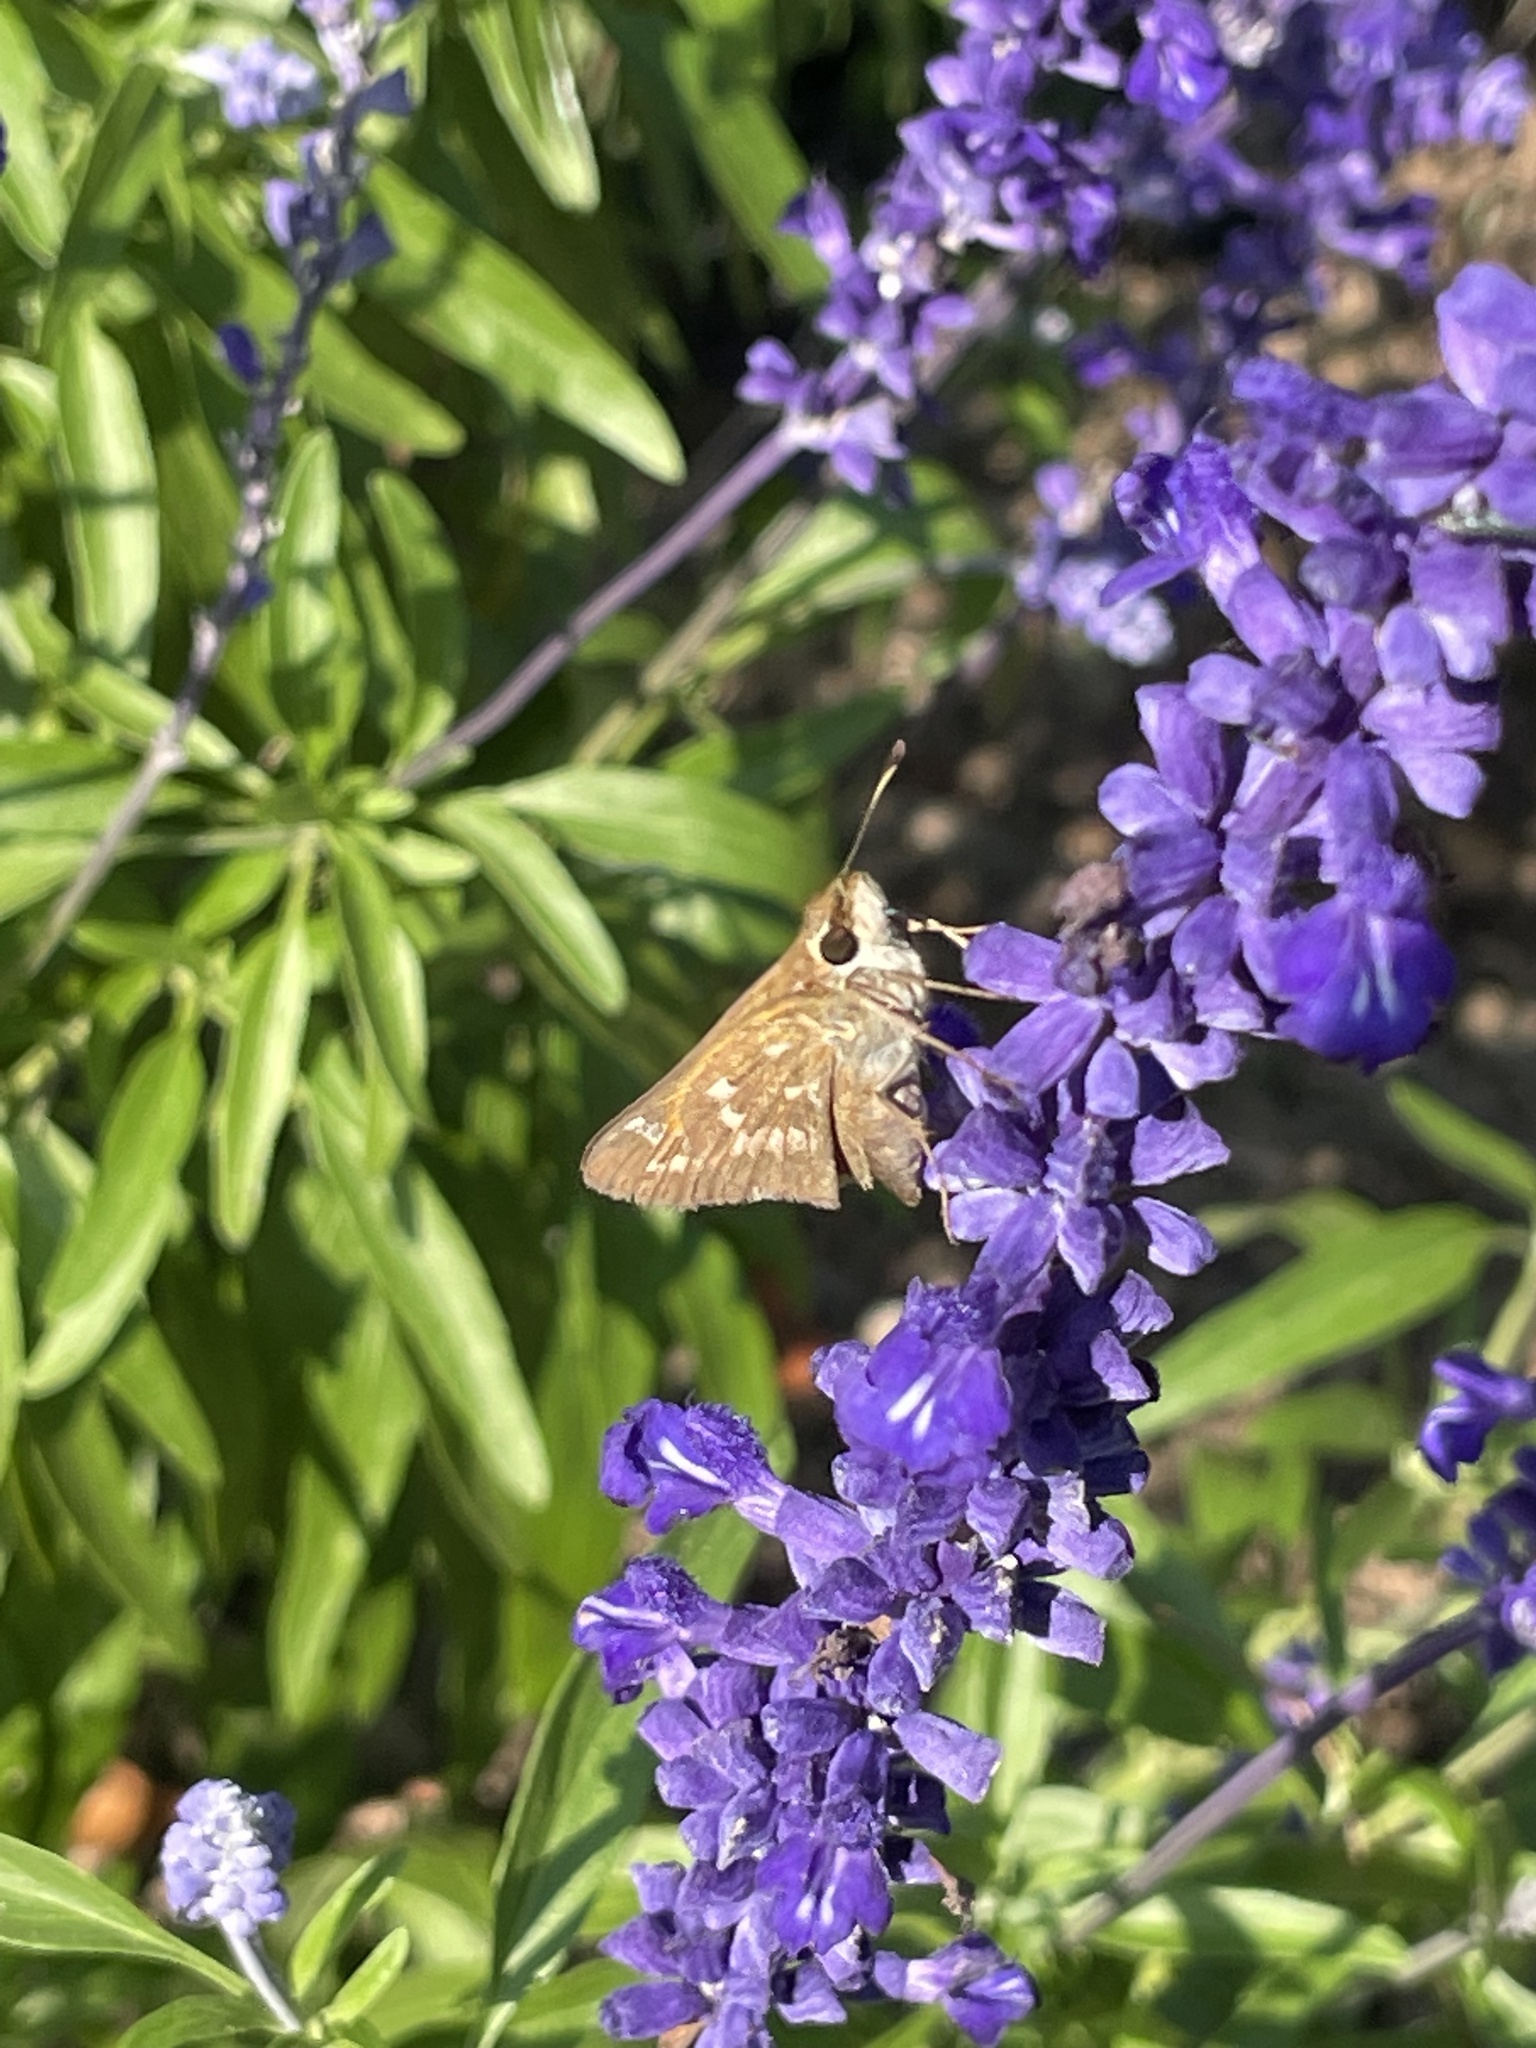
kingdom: Animalia
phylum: Arthropoda
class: Insecta
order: Lepidoptera
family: Hesperiidae
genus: Atalopedes
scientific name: Atalopedes
